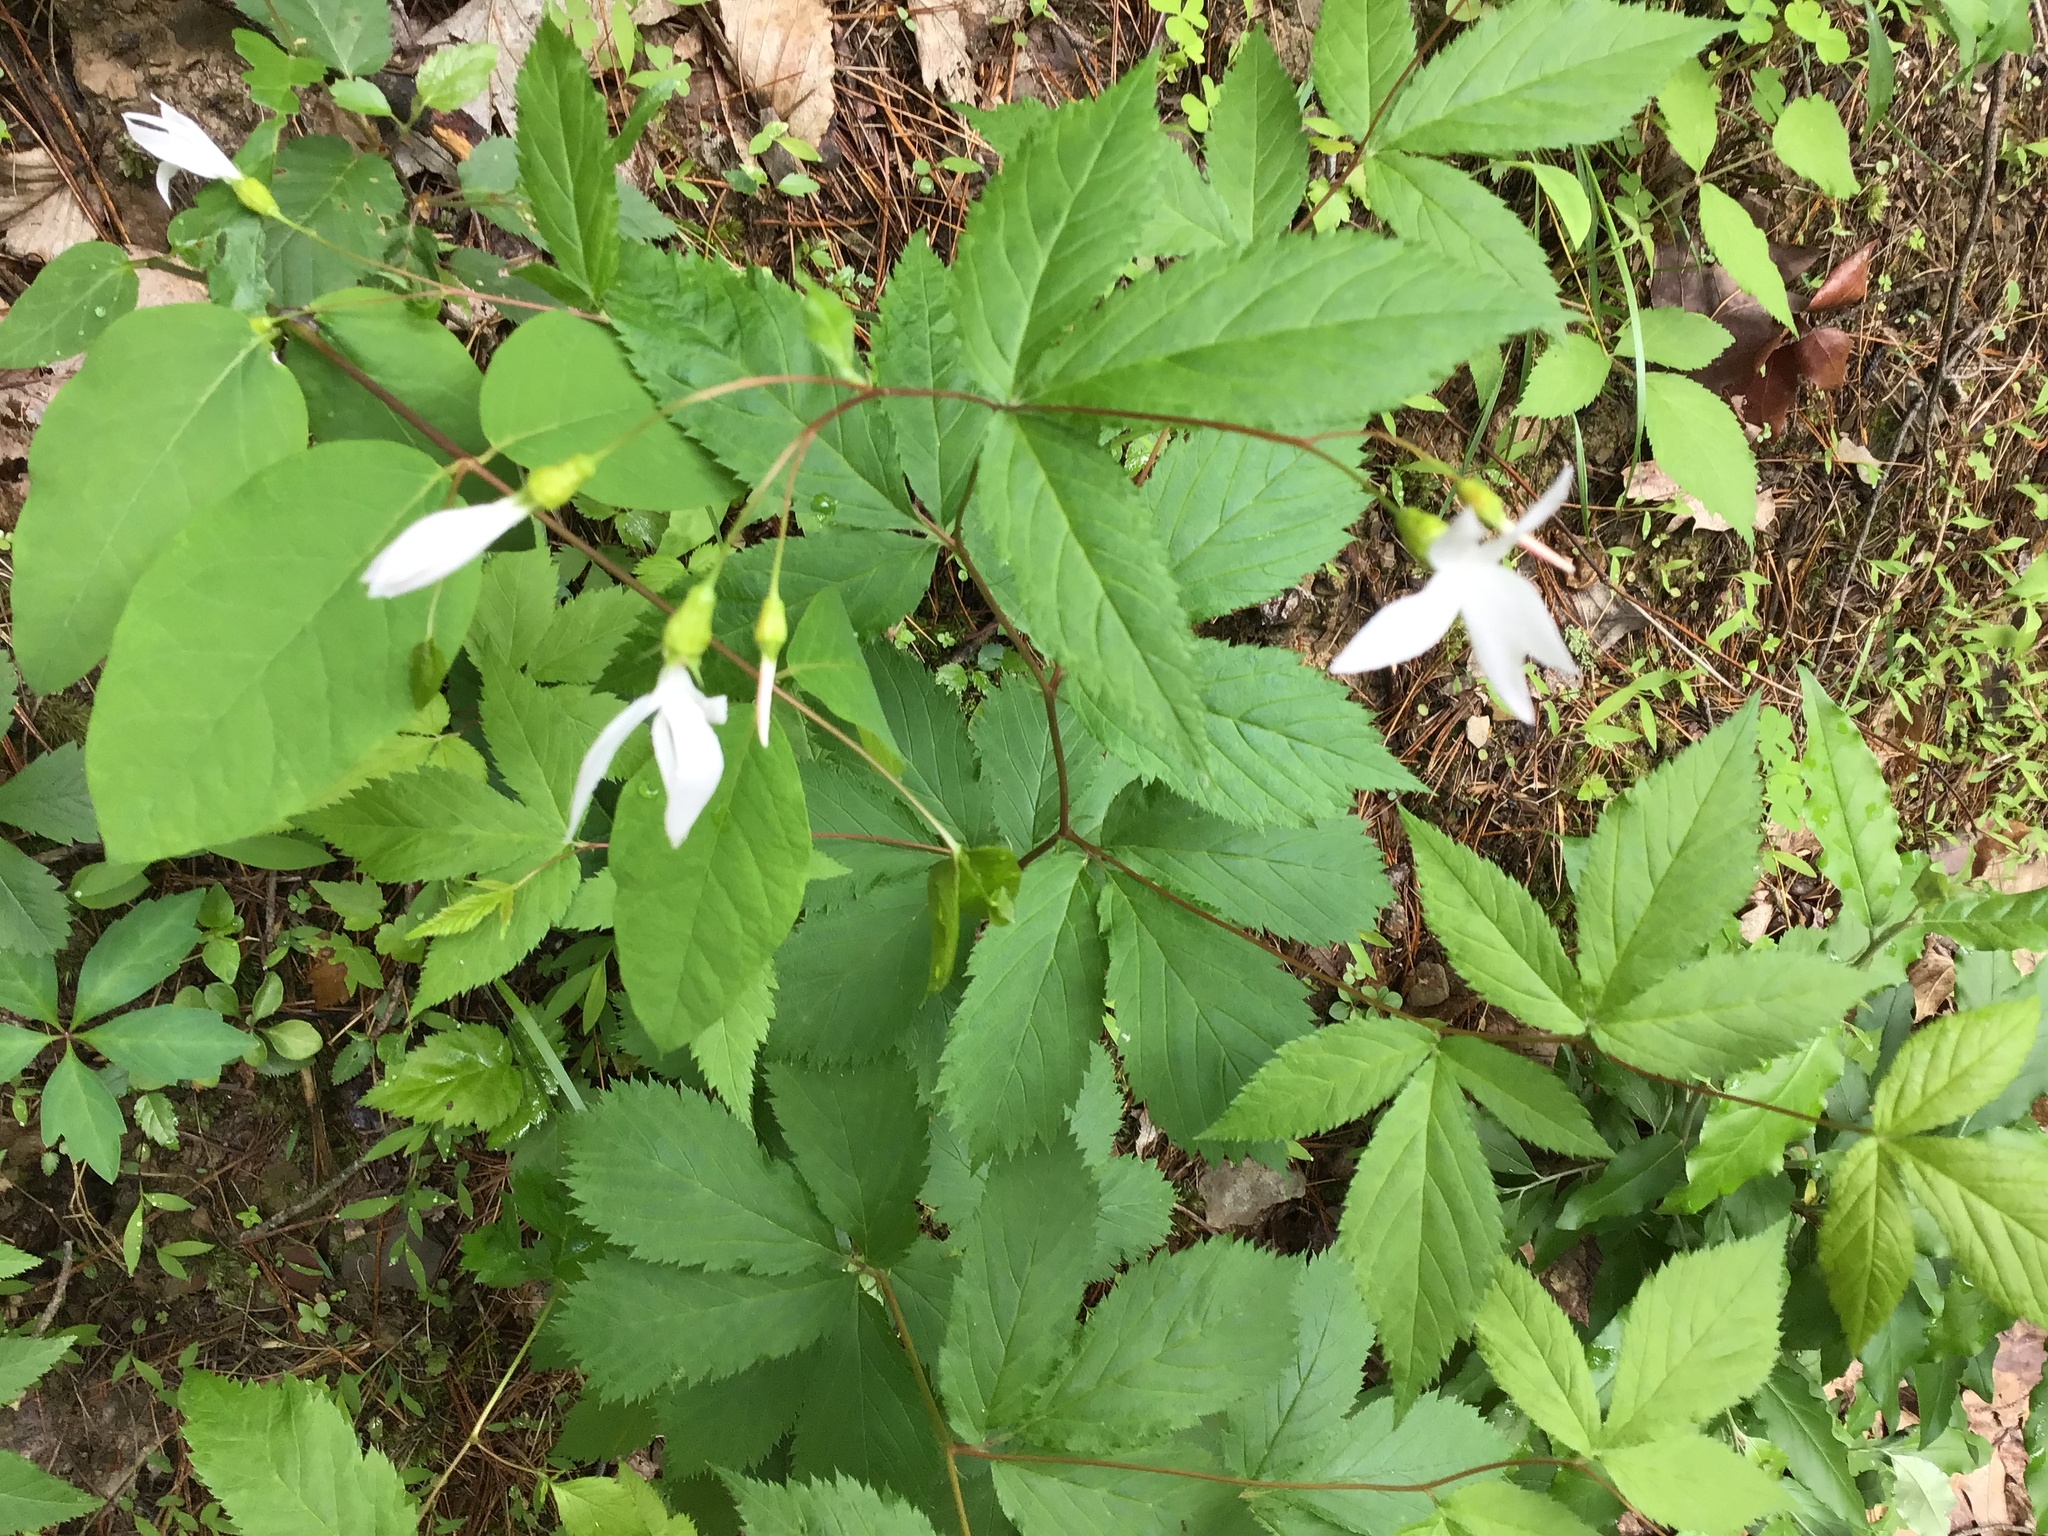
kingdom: Plantae
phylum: Tracheophyta
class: Magnoliopsida
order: Rosales
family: Rosaceae
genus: Gillenia
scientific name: Gillenia trifoliata
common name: Bowman's-root
